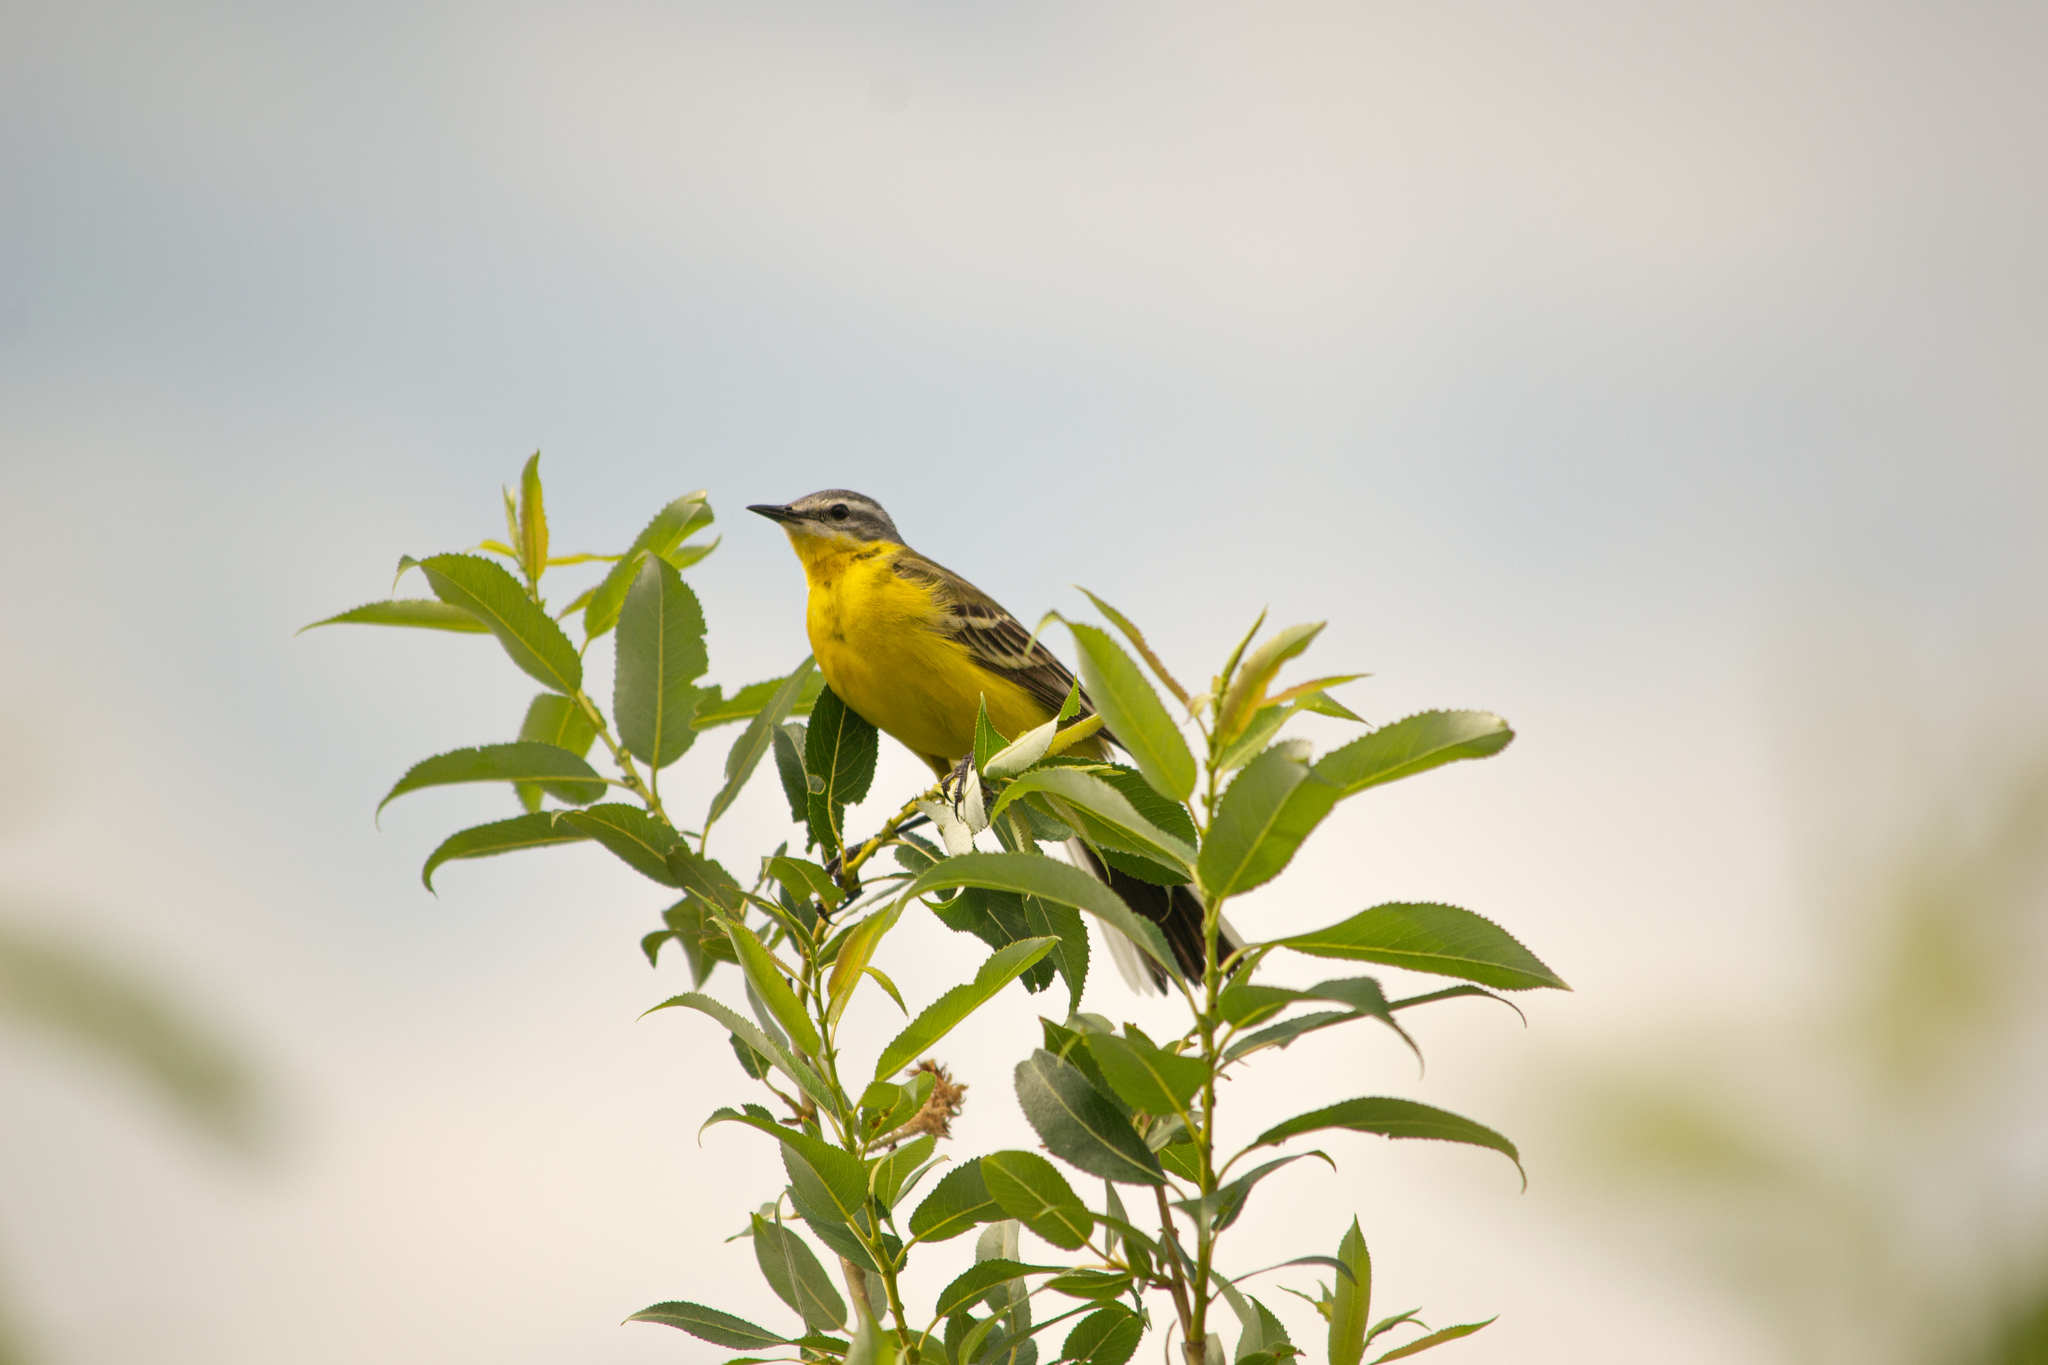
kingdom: Animalia
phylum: Chordata
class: Aves
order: Passeriformes
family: Motacillidae
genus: Motacilla
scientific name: Motacilla flava
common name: Western yellow wagtail
